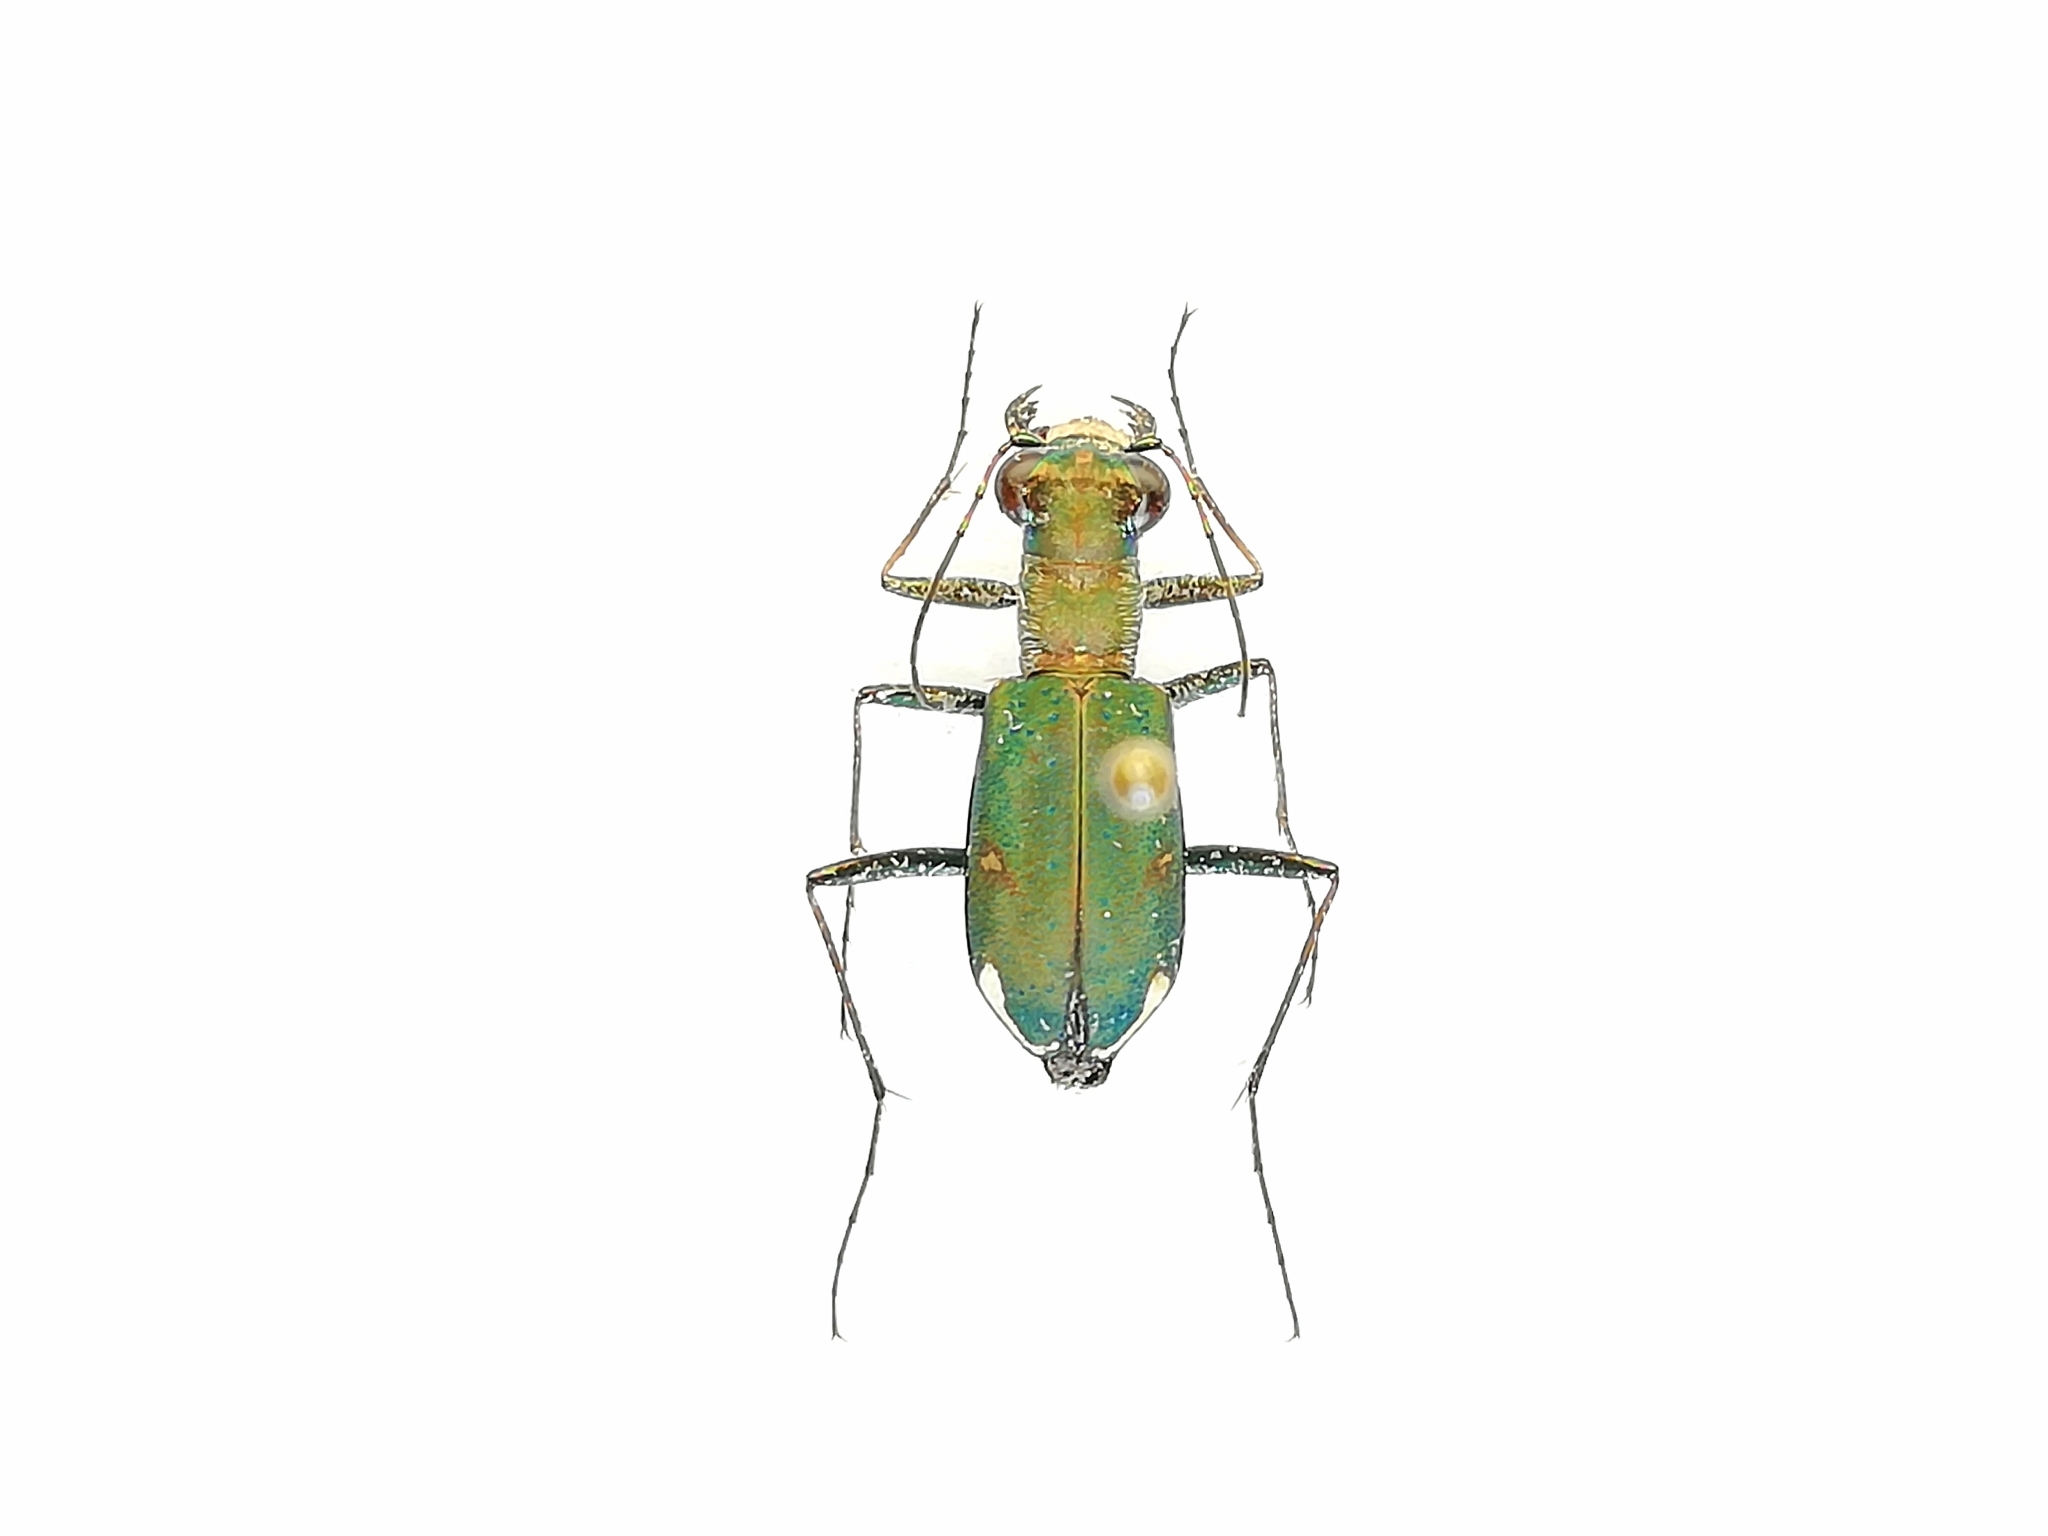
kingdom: Animalia
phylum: Arthropoda
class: Insecta
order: Coleoptera
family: Carabidae
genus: Cylindera
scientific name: Cylindera germanica
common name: Cliff tiger beetle
